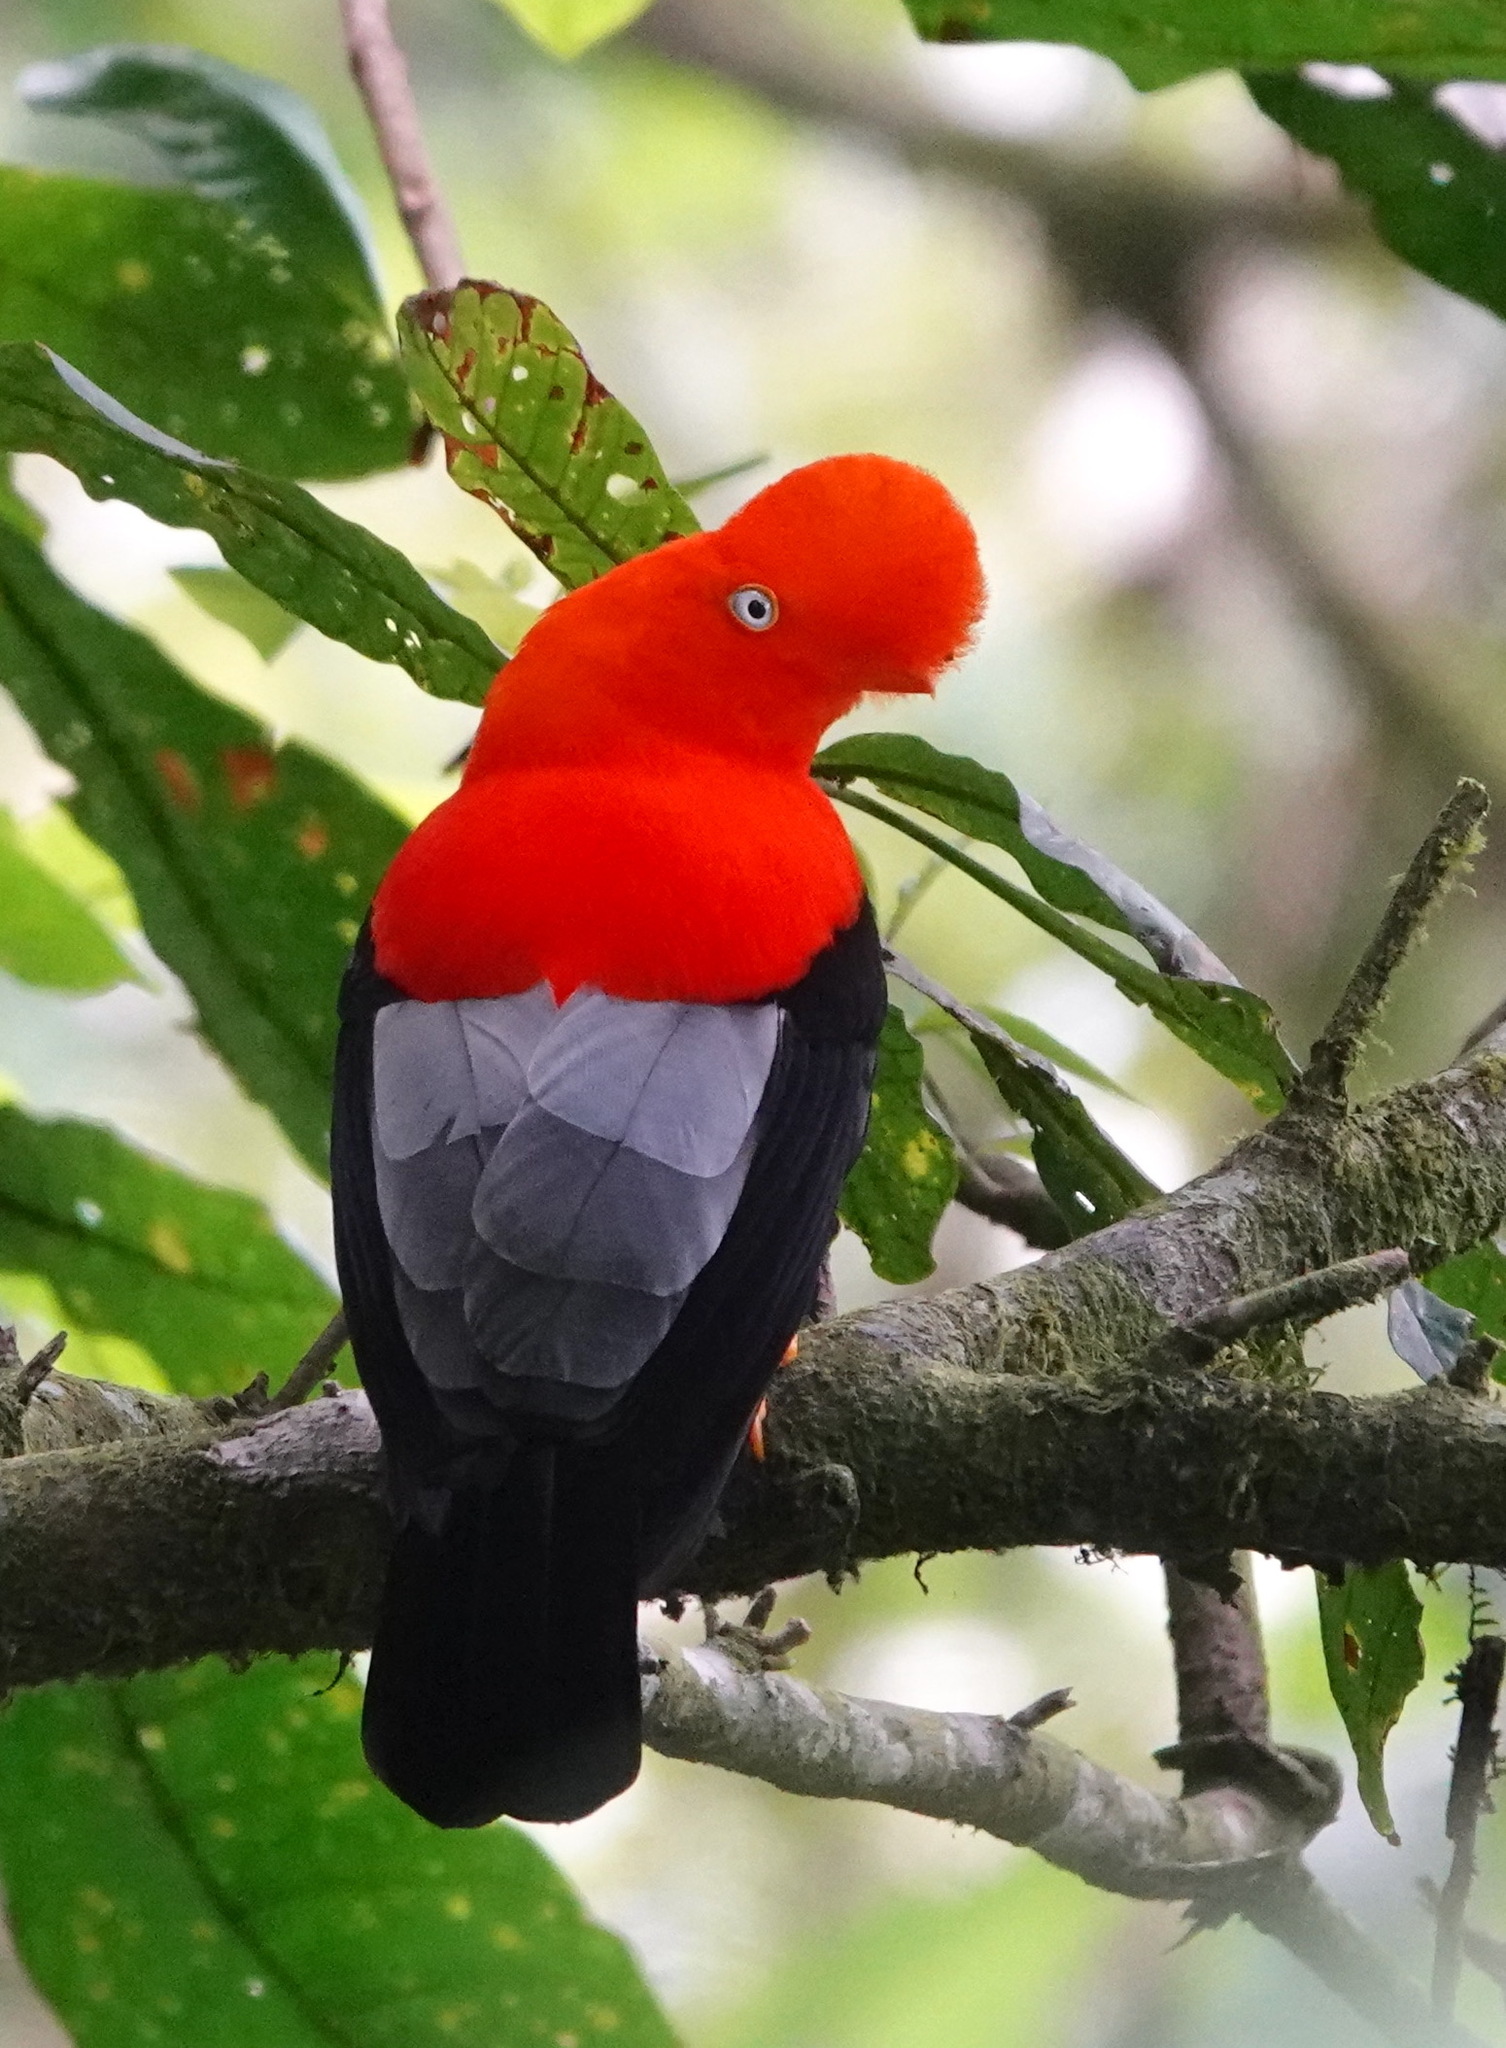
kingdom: Animalia
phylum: Chordata
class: Aves
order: Passeriformes
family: Cotingidae
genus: Rupicola
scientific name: Rupicola peruvianus
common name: Andean cock-of-the-rock
